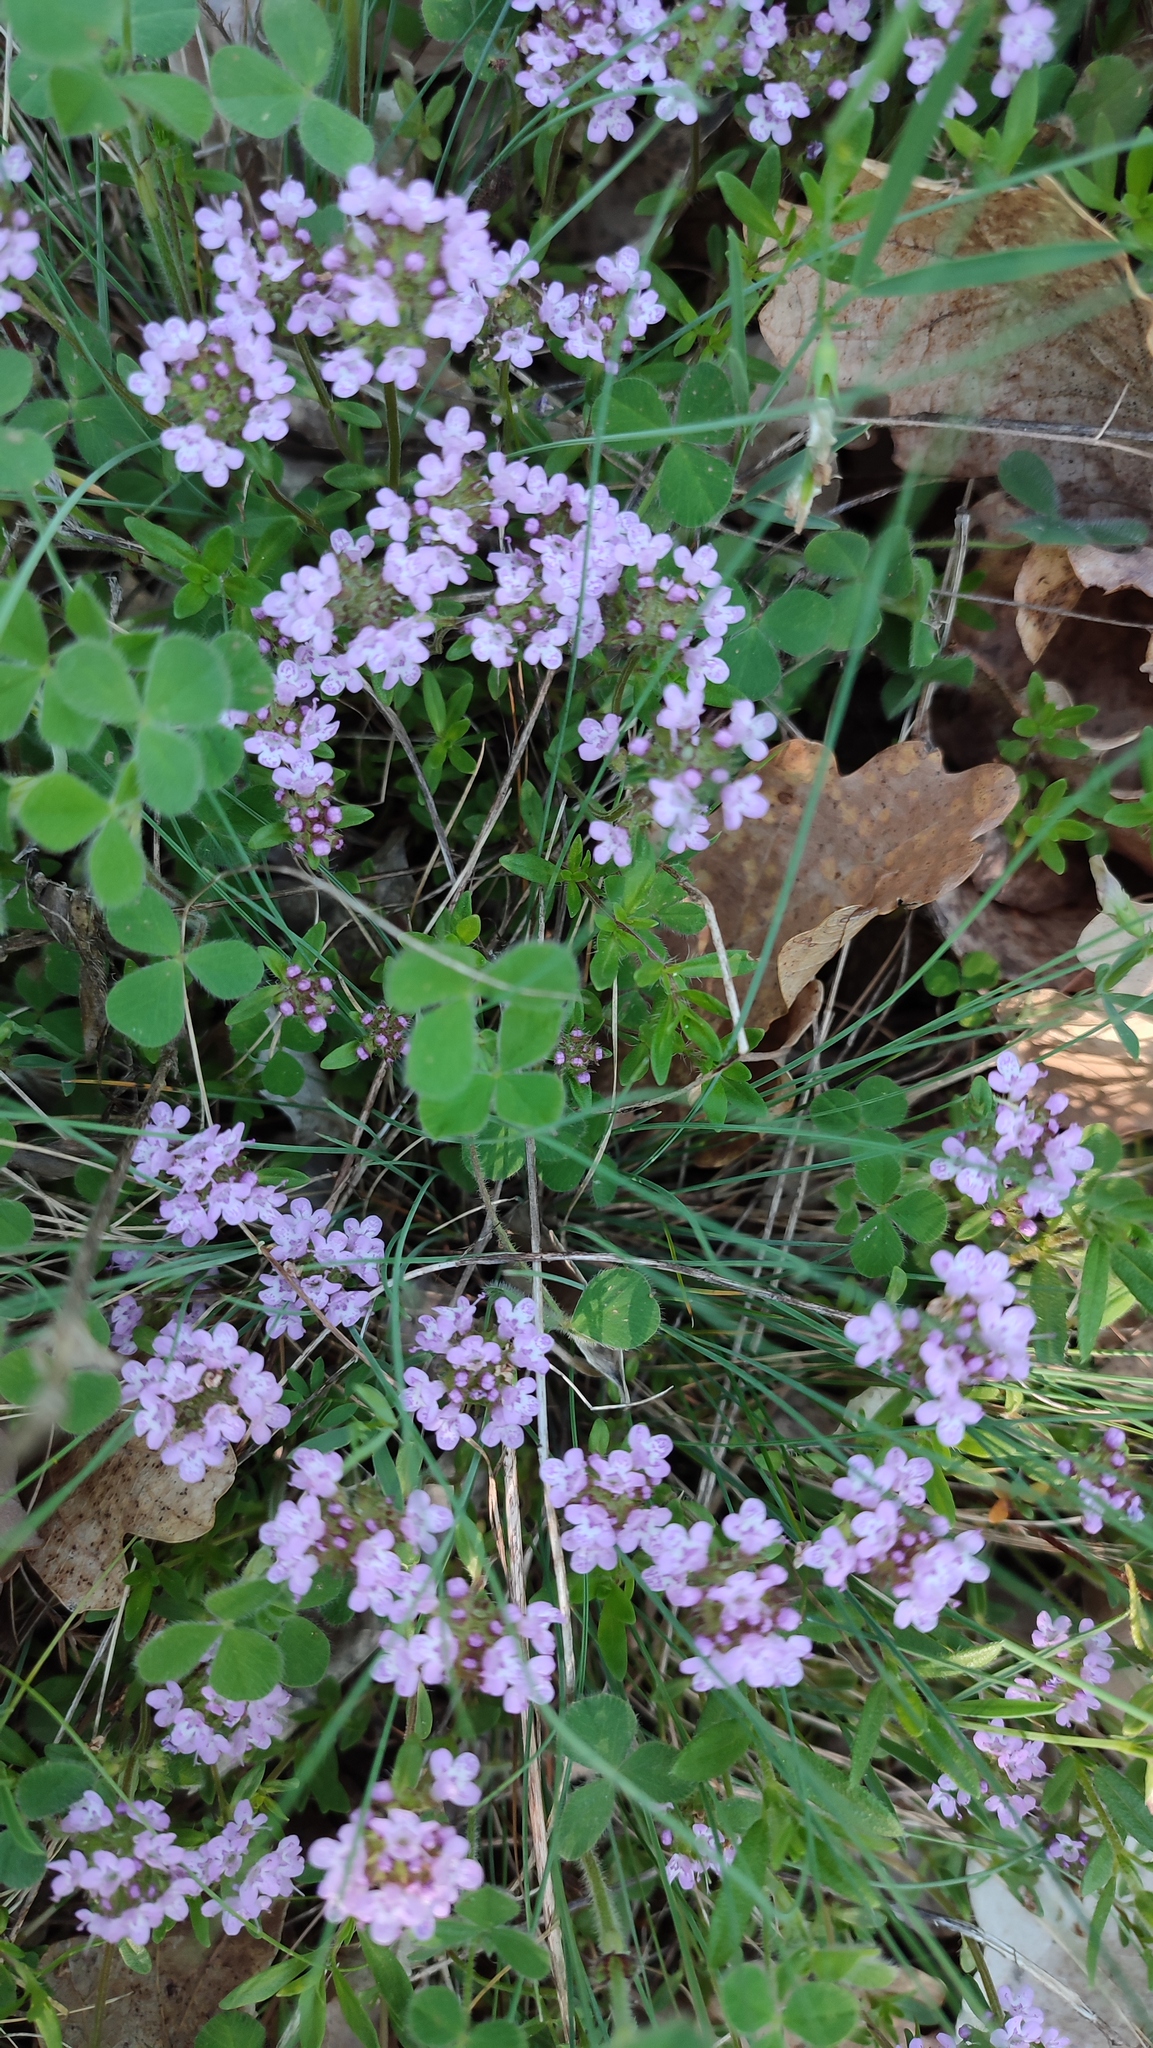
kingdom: Plantae
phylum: Tracheophyta
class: Magnoliopsida
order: Lamiales
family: Lamiaceae
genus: Thymus
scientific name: Thymus pulegioides
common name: Large thyme
